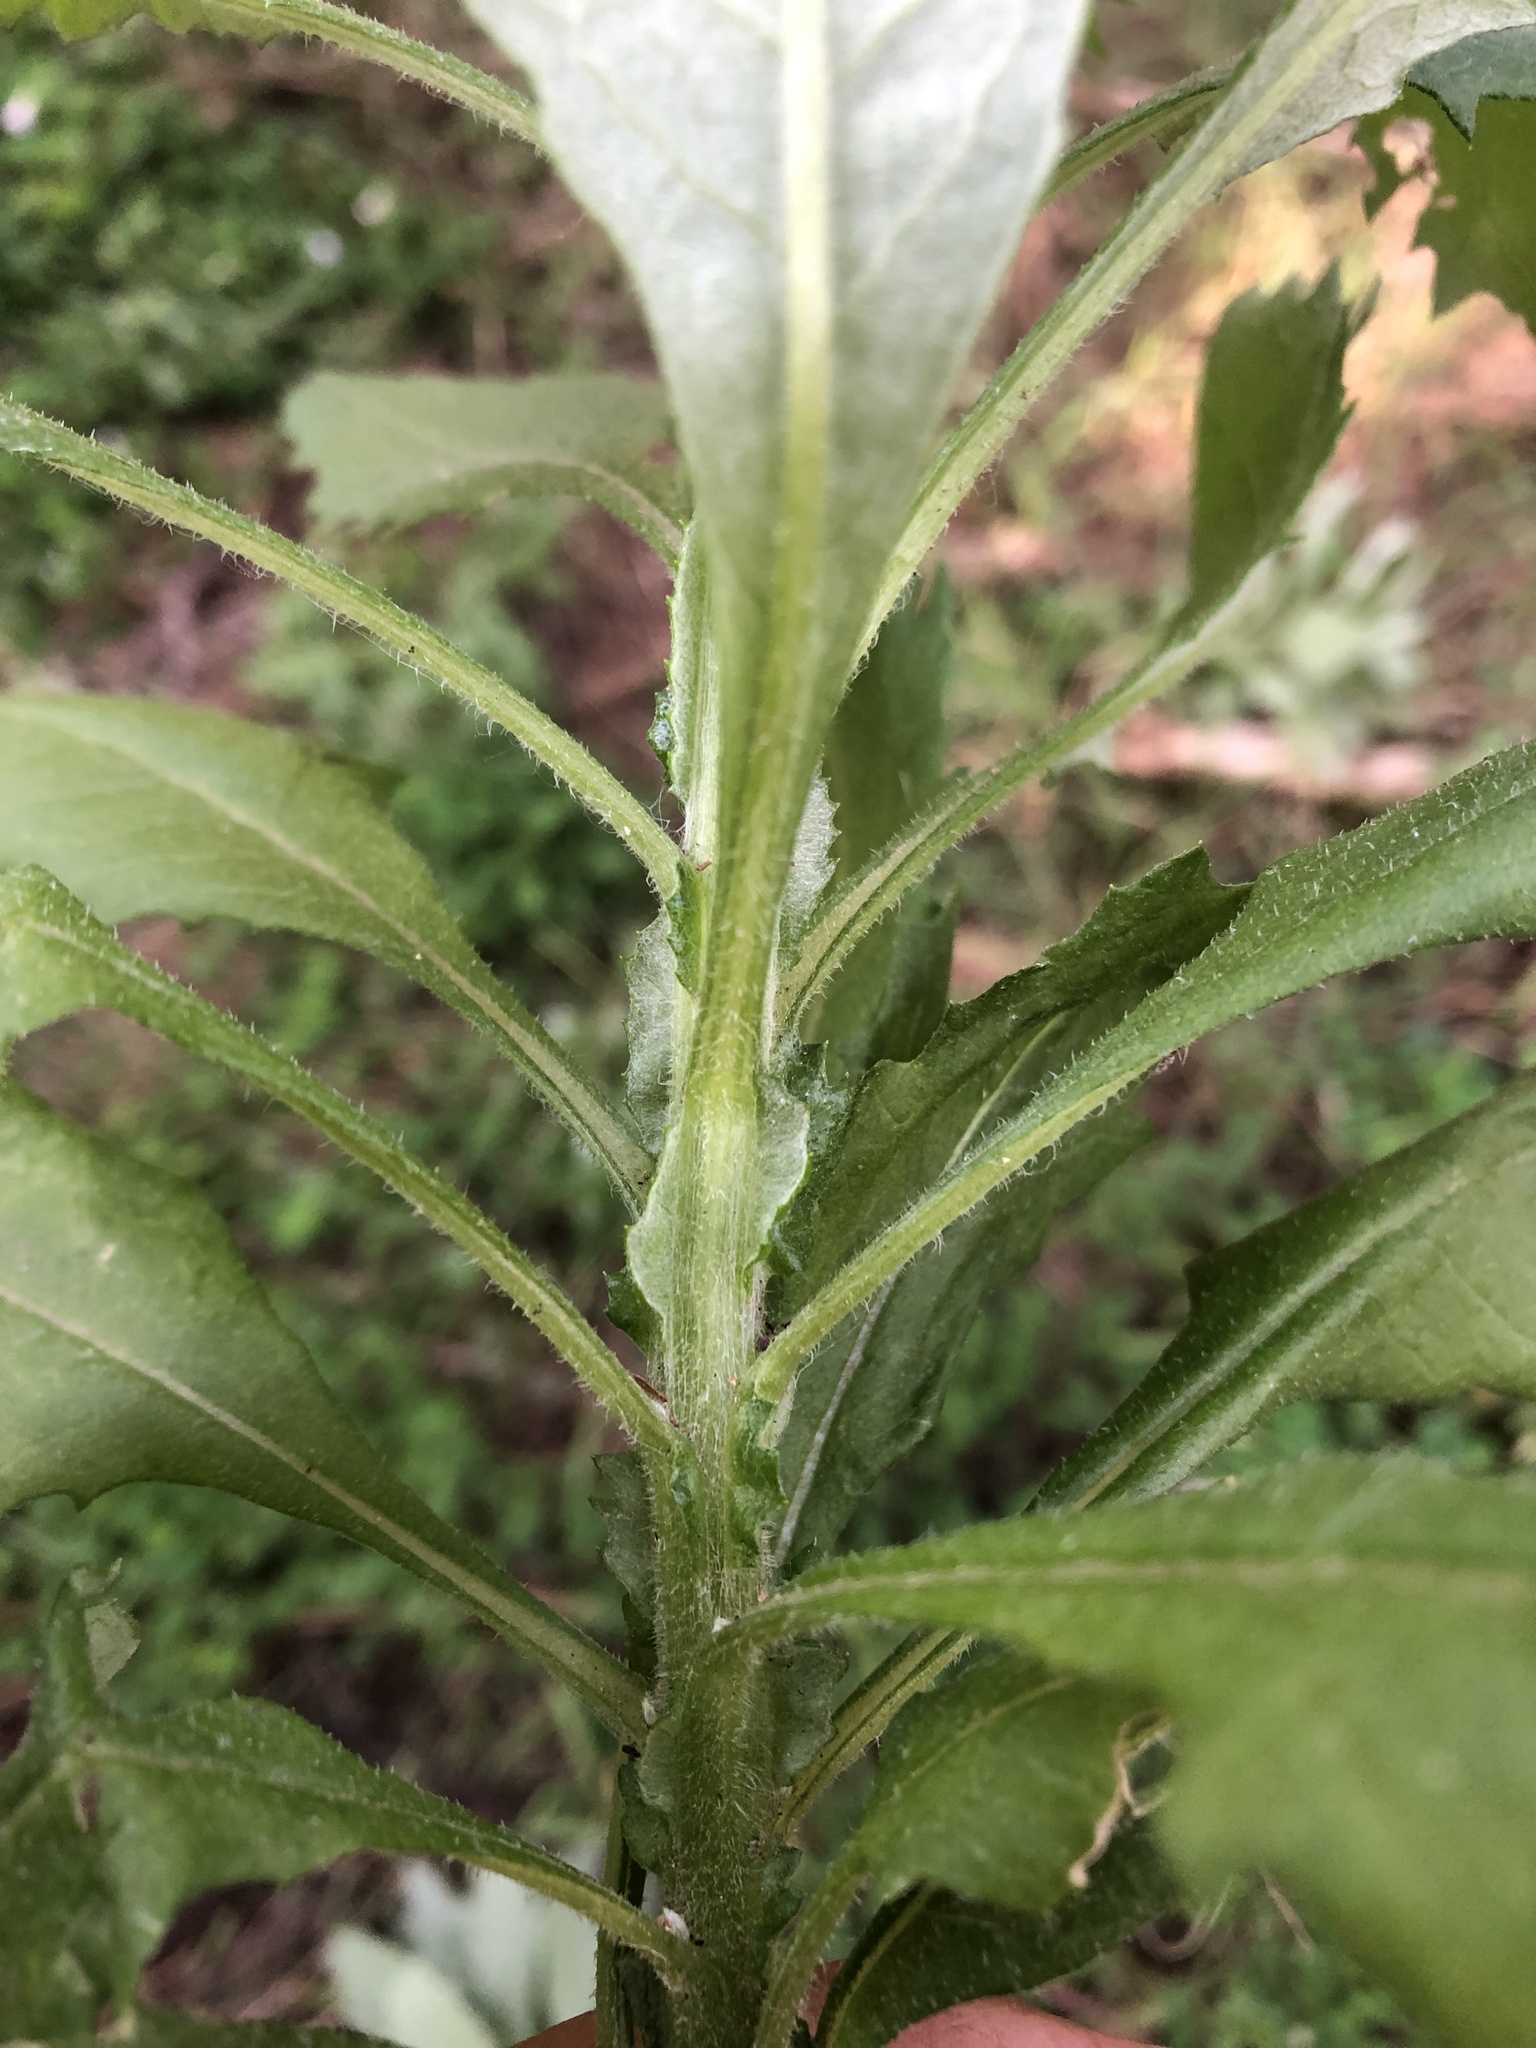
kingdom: Plantae
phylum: Tracheophyta
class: Magnoliopsida
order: Asterales
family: Asteraceae
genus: Senecio
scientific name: Senecio pterophorus
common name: Shoddy ragwort
